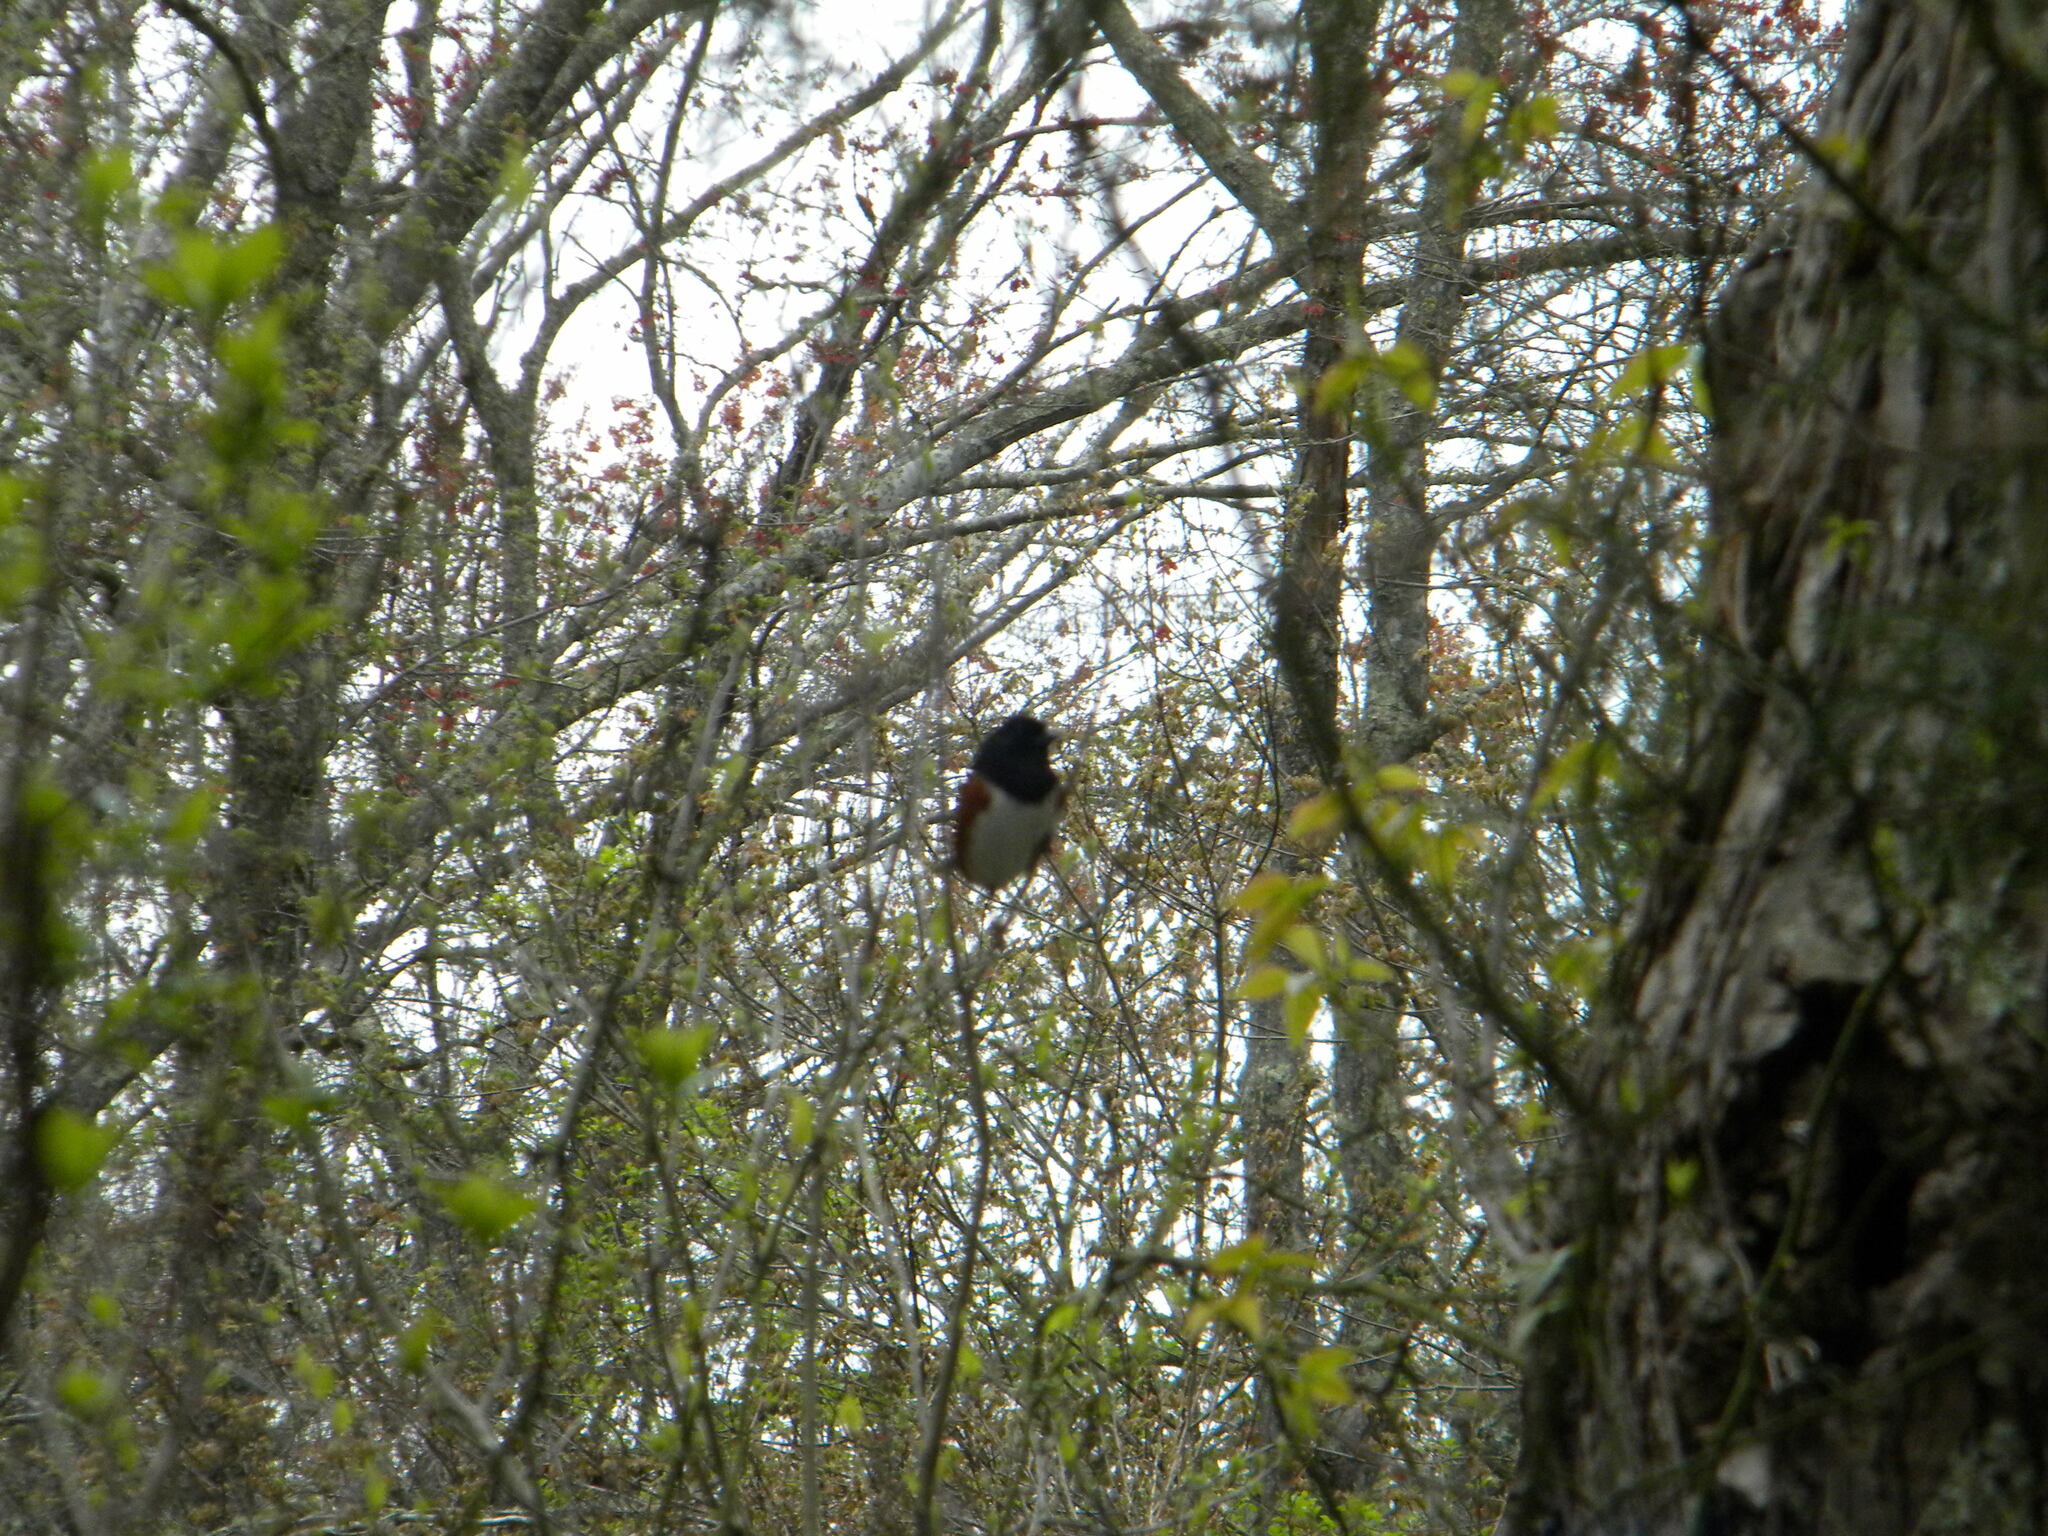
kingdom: Animalia
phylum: Chordata
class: Aves
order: Passeriformes
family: Passerellidae
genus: Pipilo
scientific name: Pipilo erythrophthalmus
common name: Eastern towhee
